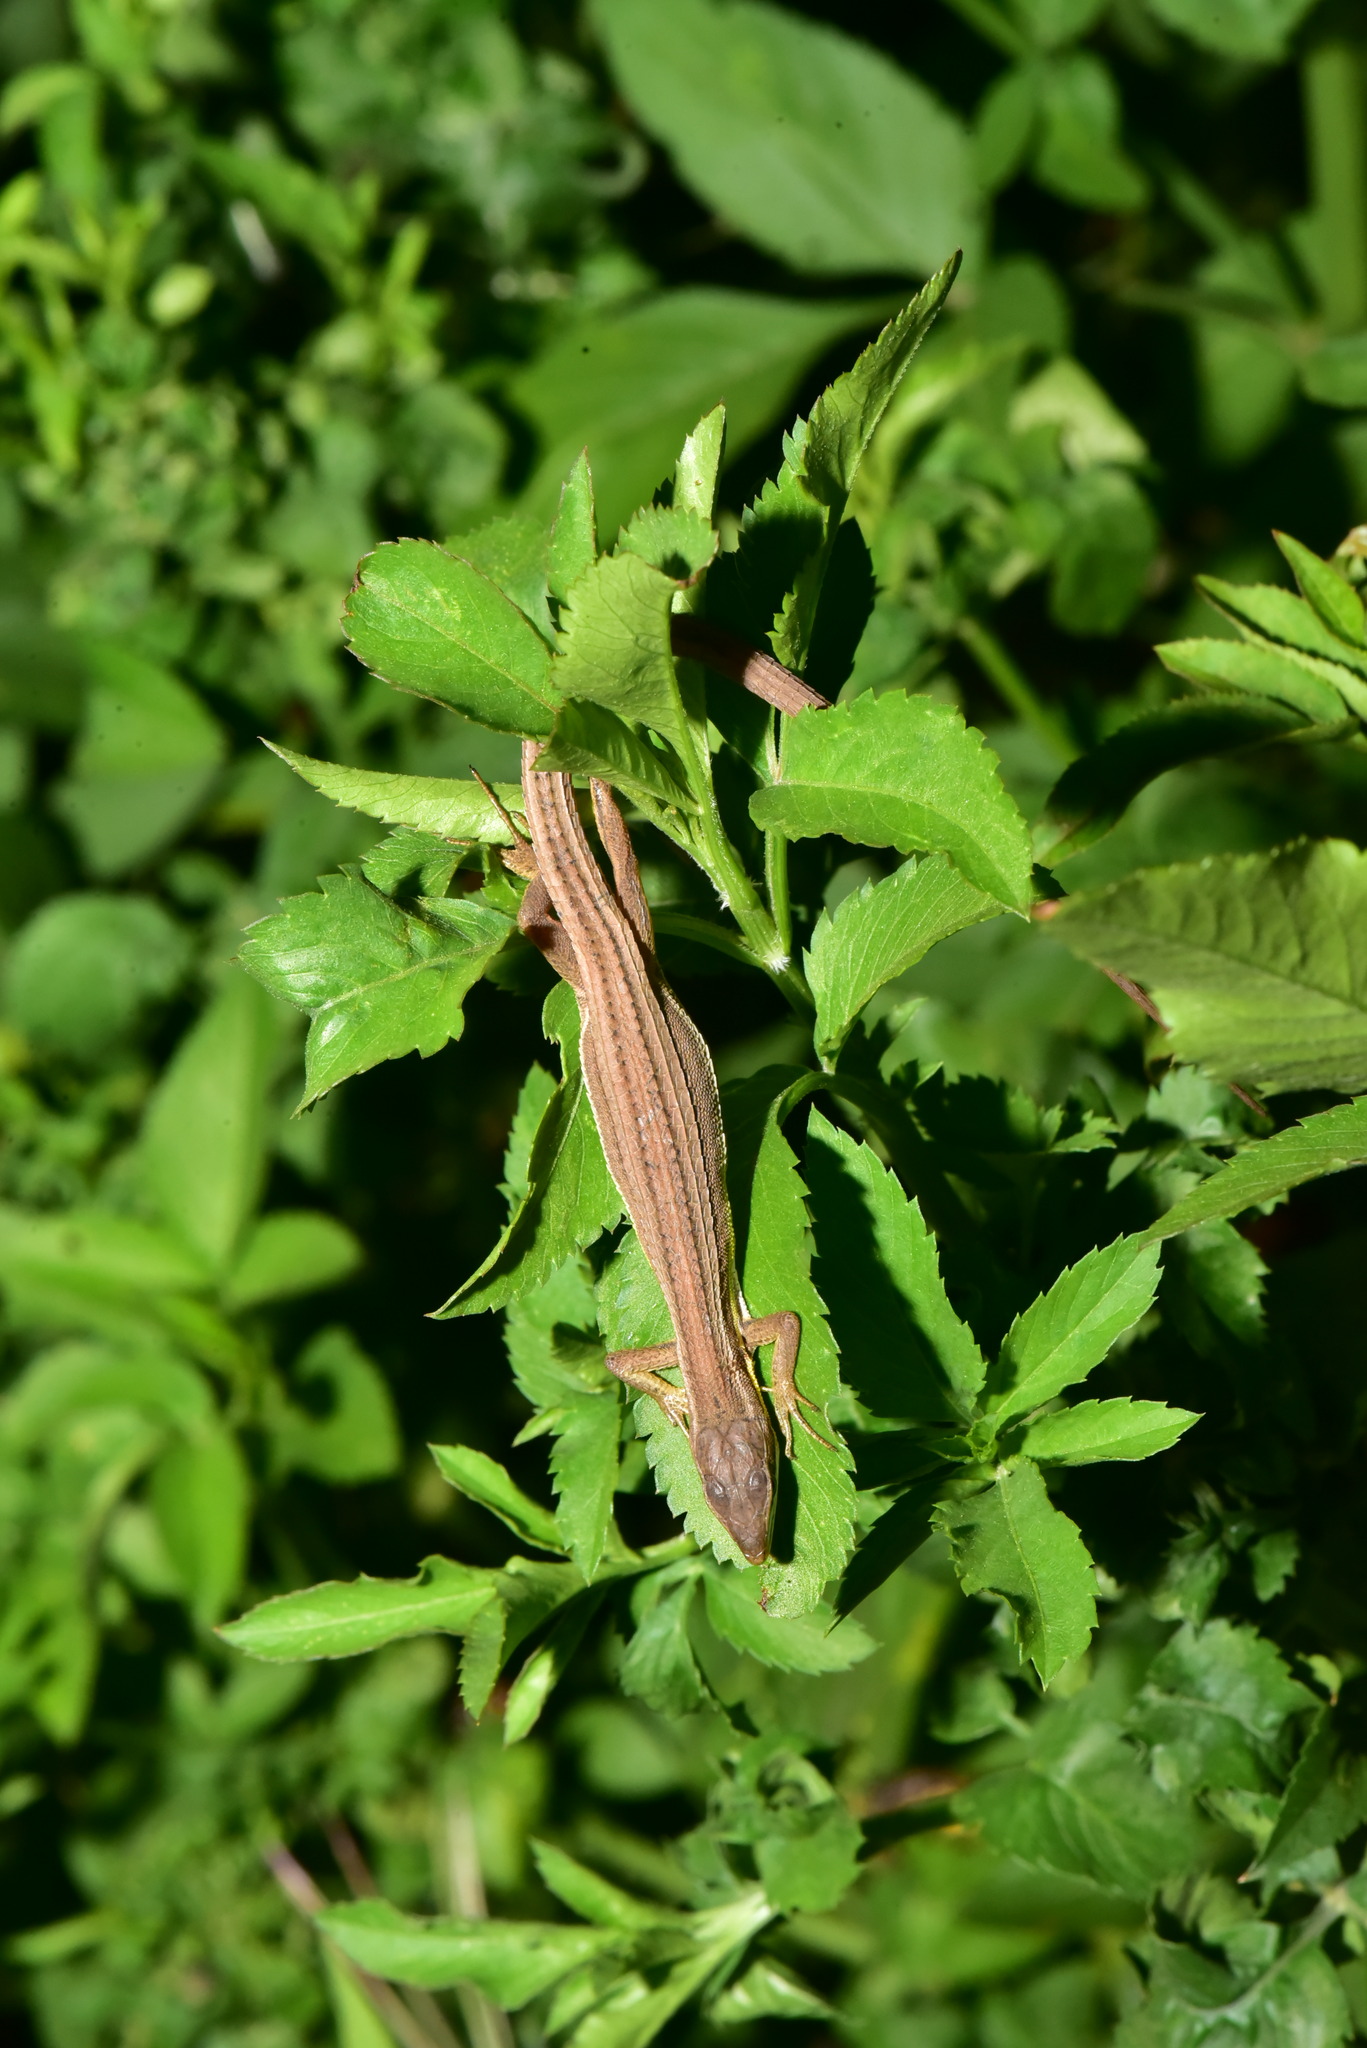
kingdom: Animalia
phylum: Chordata
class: Squamata
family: Lacertidae
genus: Takydromus
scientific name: Takydromus viridipunctatus
